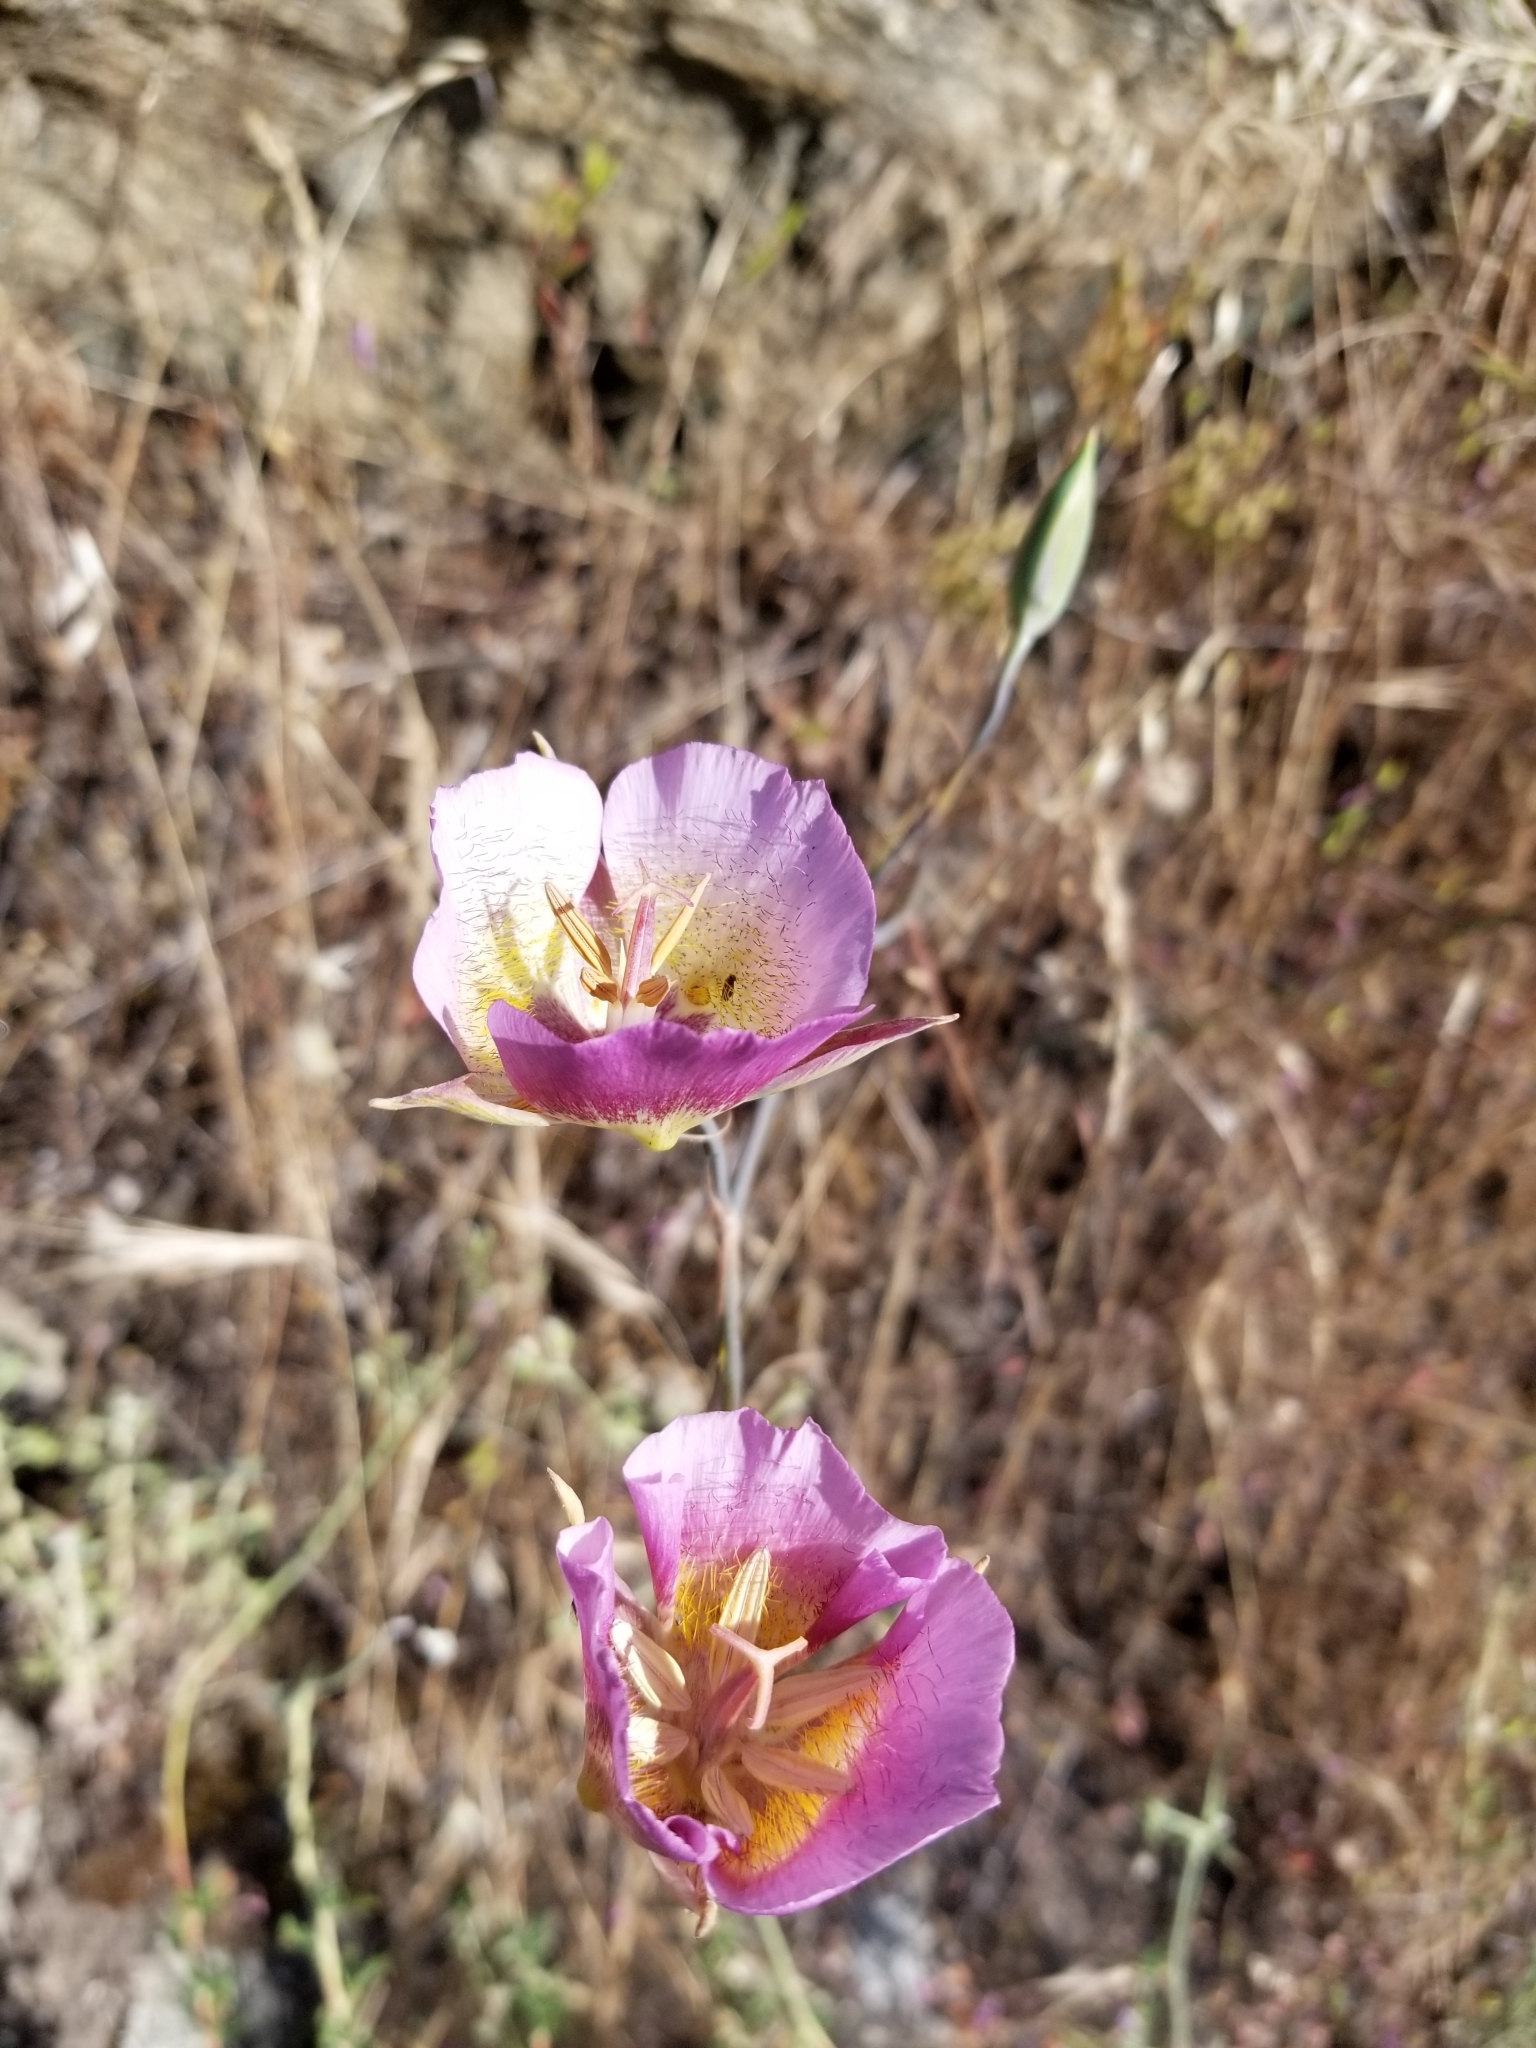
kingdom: Plantae
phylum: Tracheophyta
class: Liliopsida
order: Liliales
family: Liliaceae
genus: Calochortus
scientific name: Calochortus plummerae
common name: Plummer's mariposa-lily
